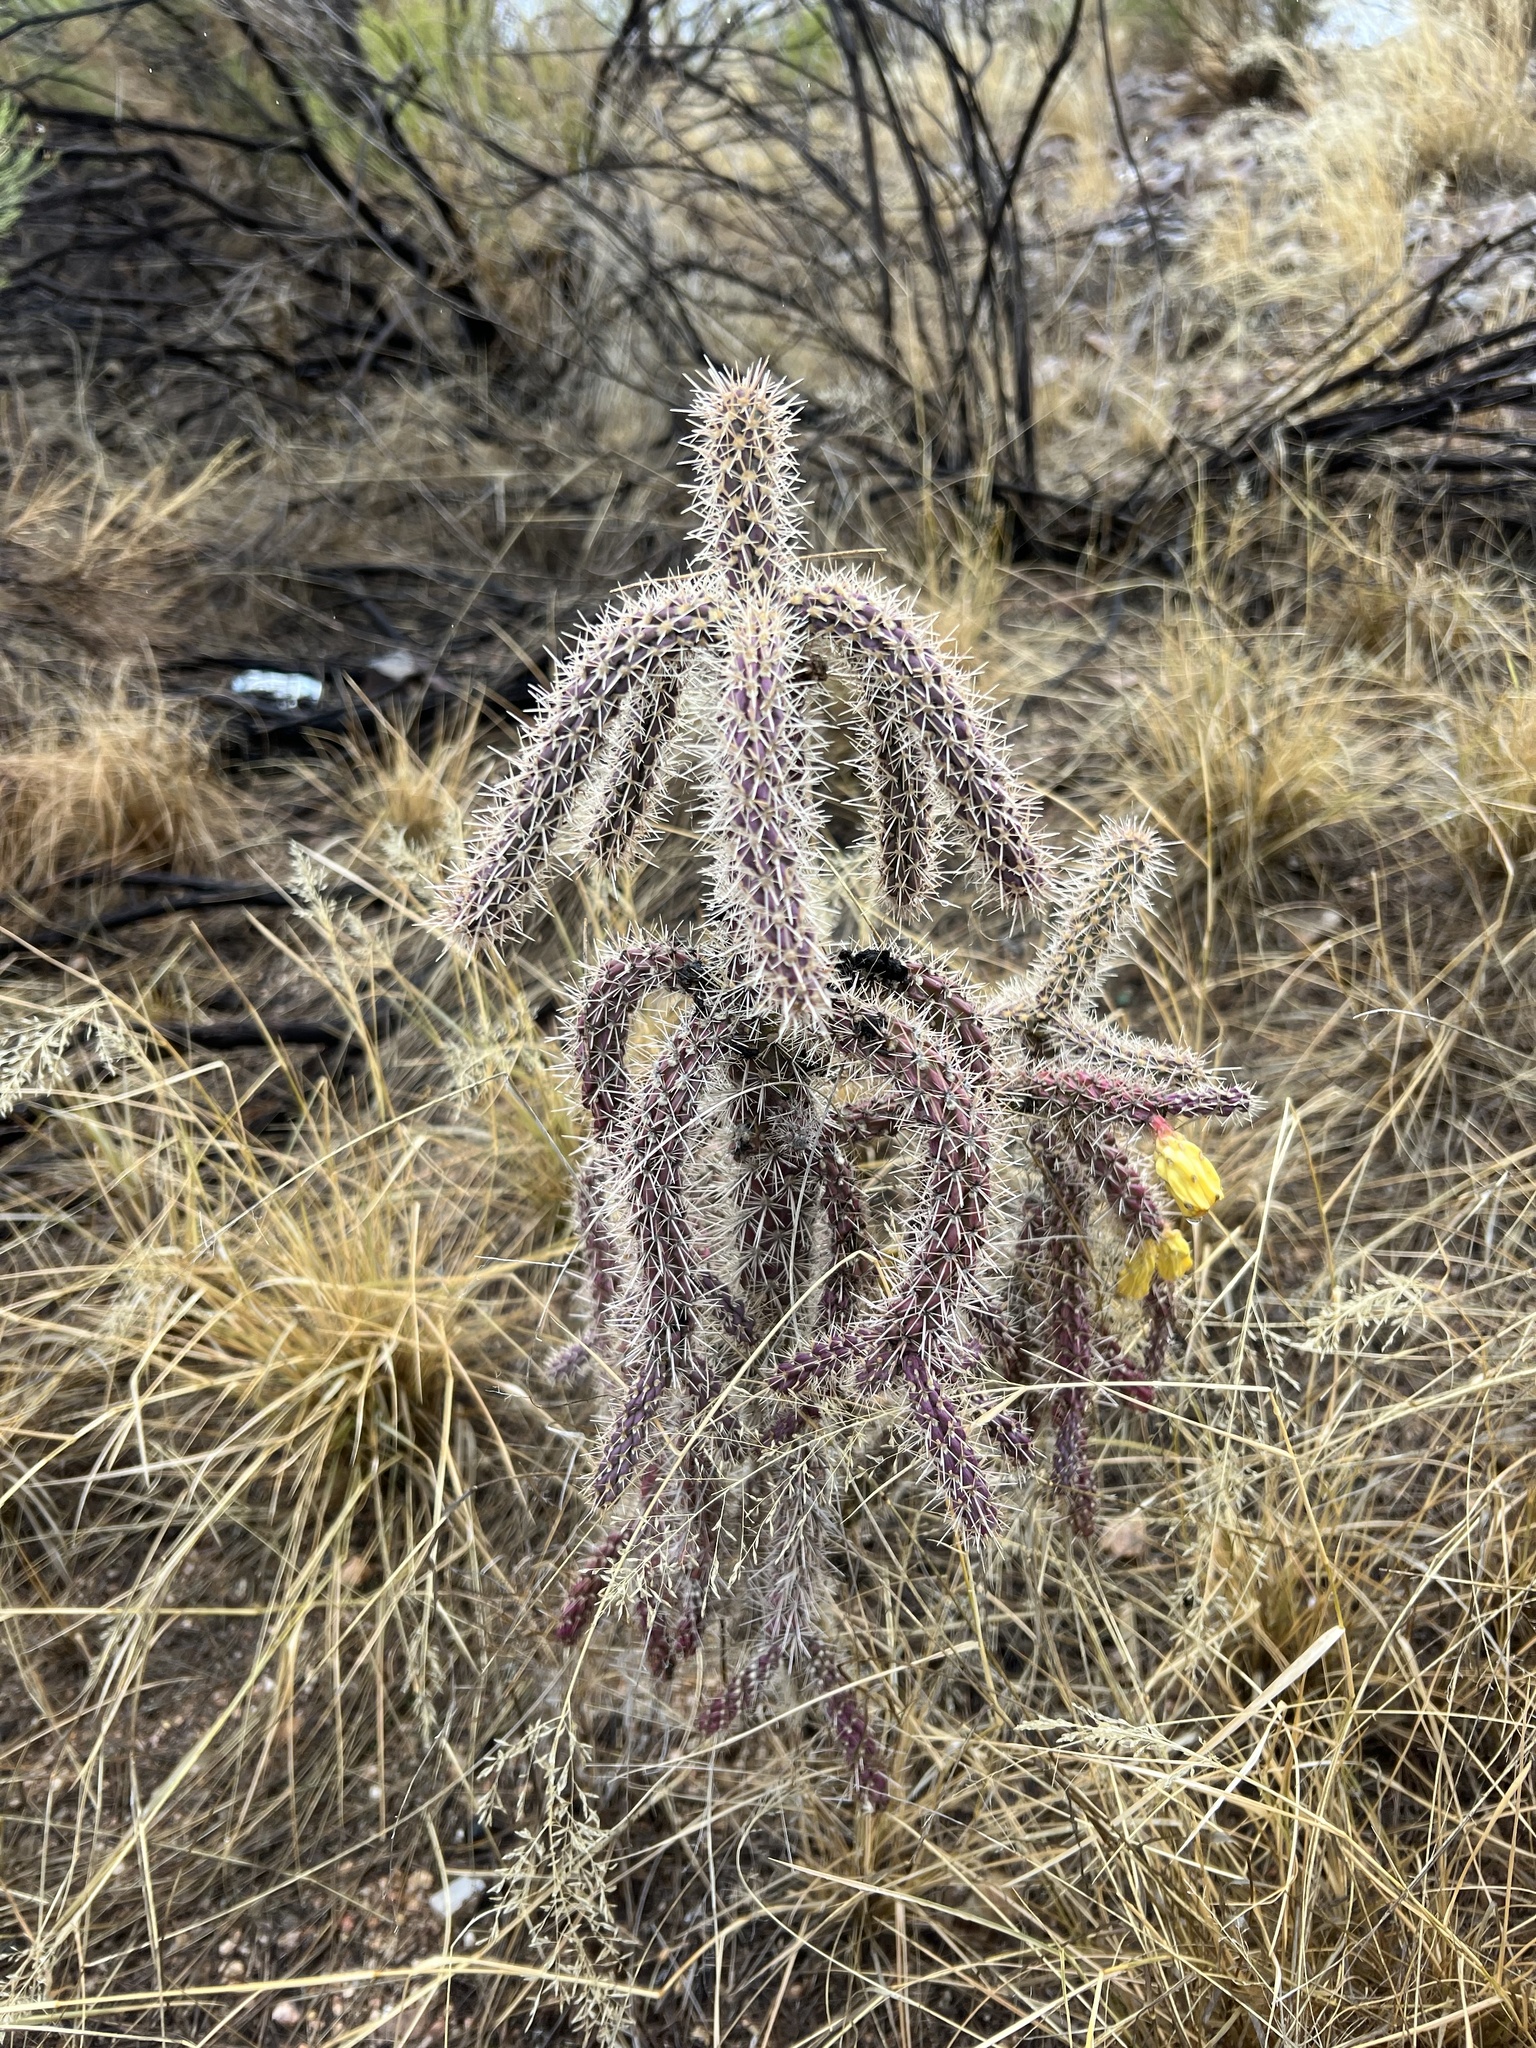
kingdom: Plantae
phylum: Tracheophyta
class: Magnoliopsida
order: Caryophyllales
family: Cactaceae
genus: Cylindropuntia
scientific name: Cylindropuntia imbricata
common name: Candelabrum cactus
